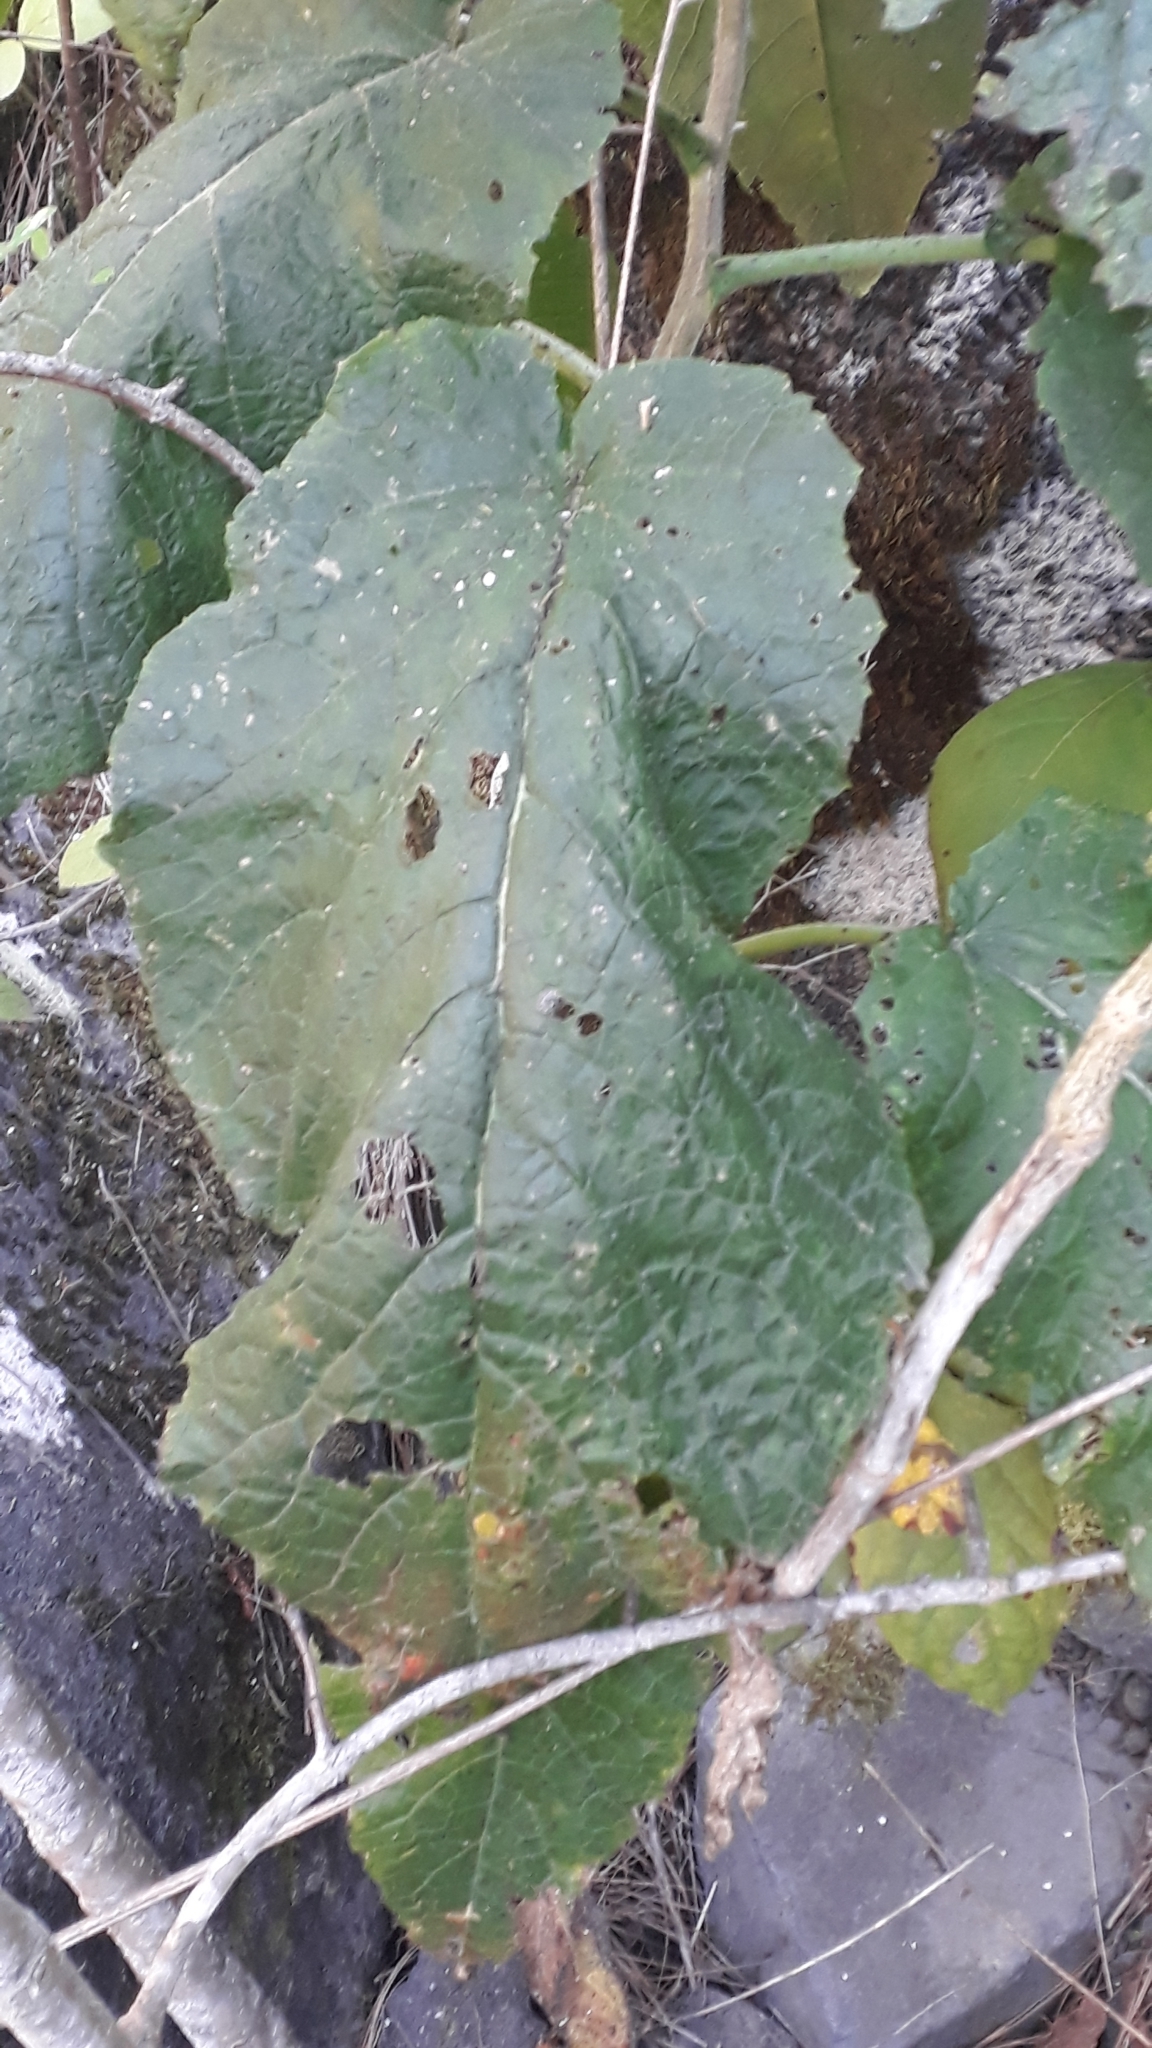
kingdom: Plantae
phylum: Tracheophyta
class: Magnoliopsida
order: Brassicales
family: Brassicaceae
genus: Crambe
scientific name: Crambe strigosa
